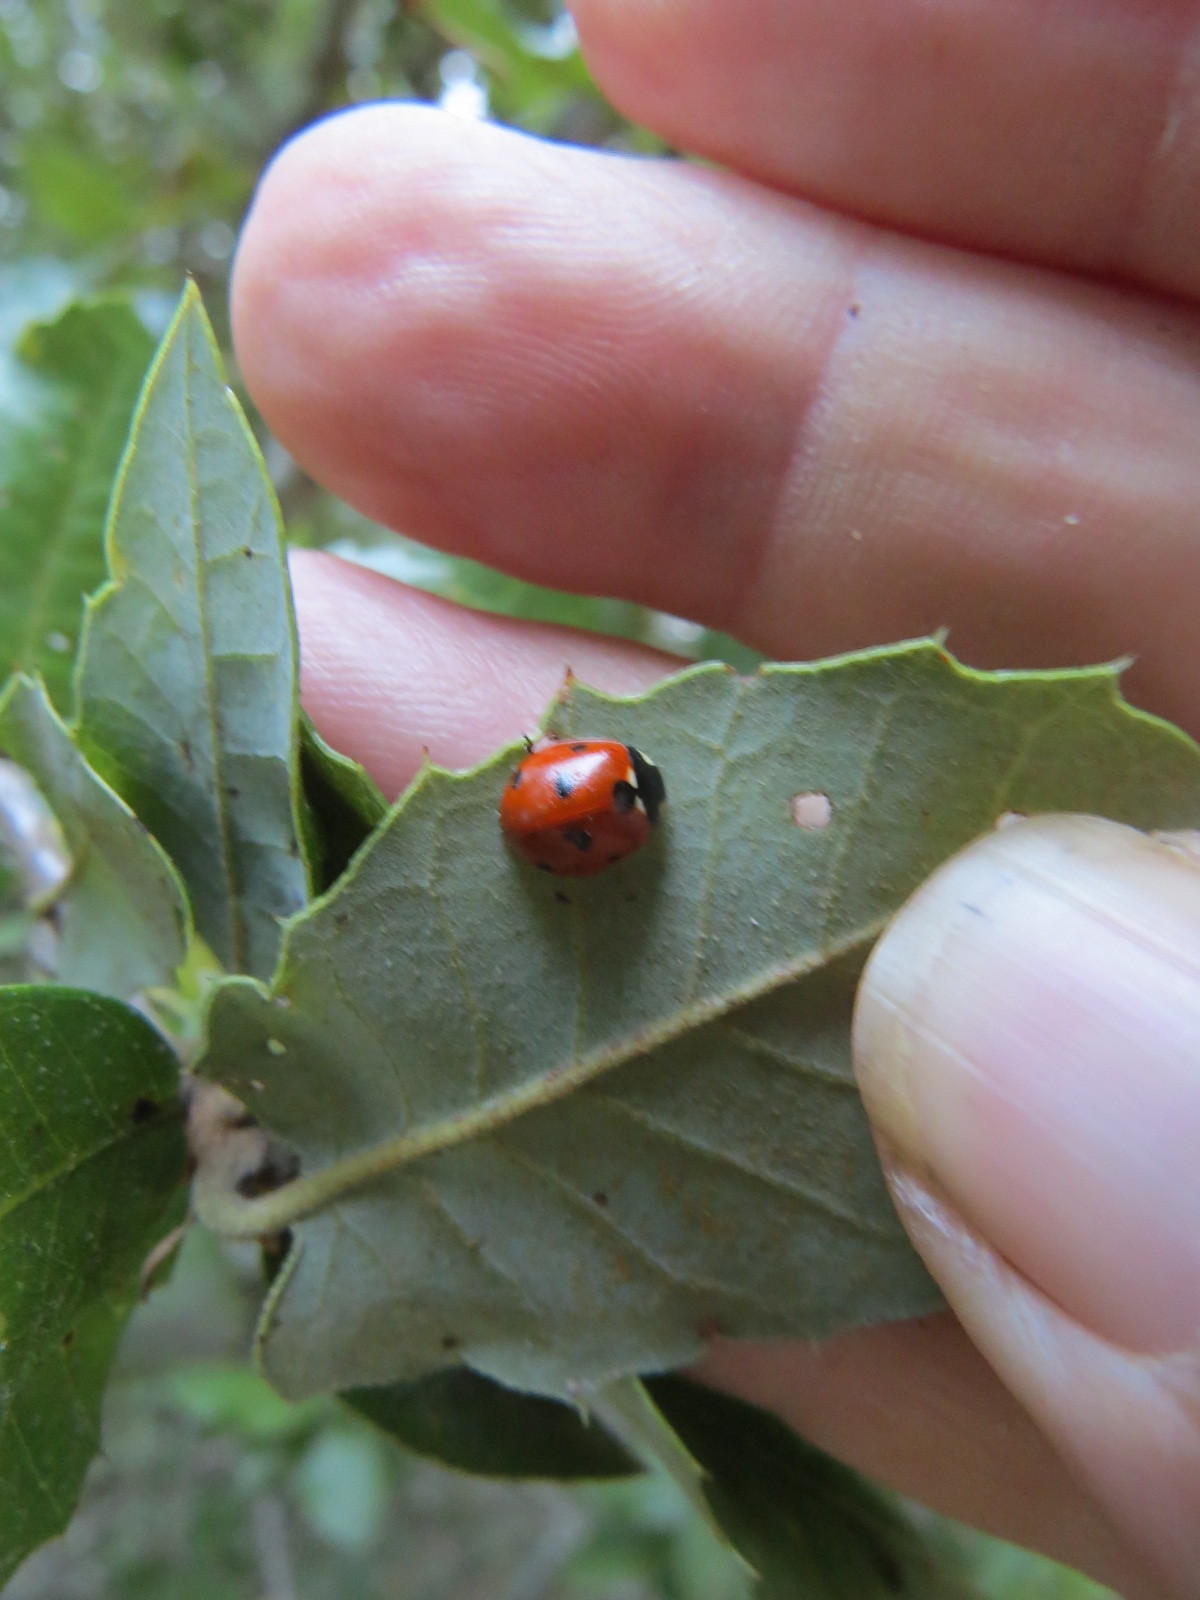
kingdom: Animalia
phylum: Arthropoda
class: Insecta
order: Coleoptera
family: Coccinellidae
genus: Coccinella
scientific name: Coccinella septempunctata
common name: Sevenspotted lady beetle
